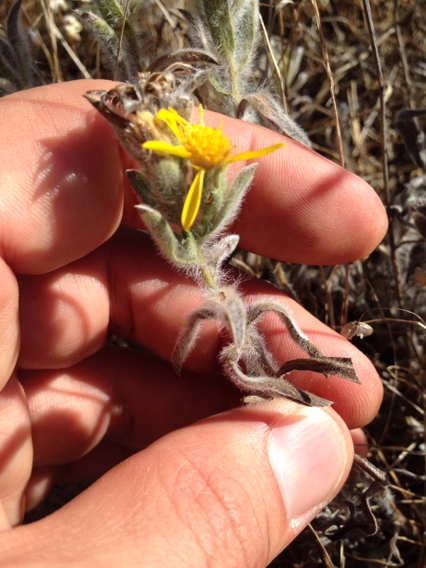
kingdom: Plantae
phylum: Tracheophyta
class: Magnoliopsida
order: Asterales
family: Asteraceae
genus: Heterotheca
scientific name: Heterotheca sessiliflora
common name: Sessile-flower golden-aster
